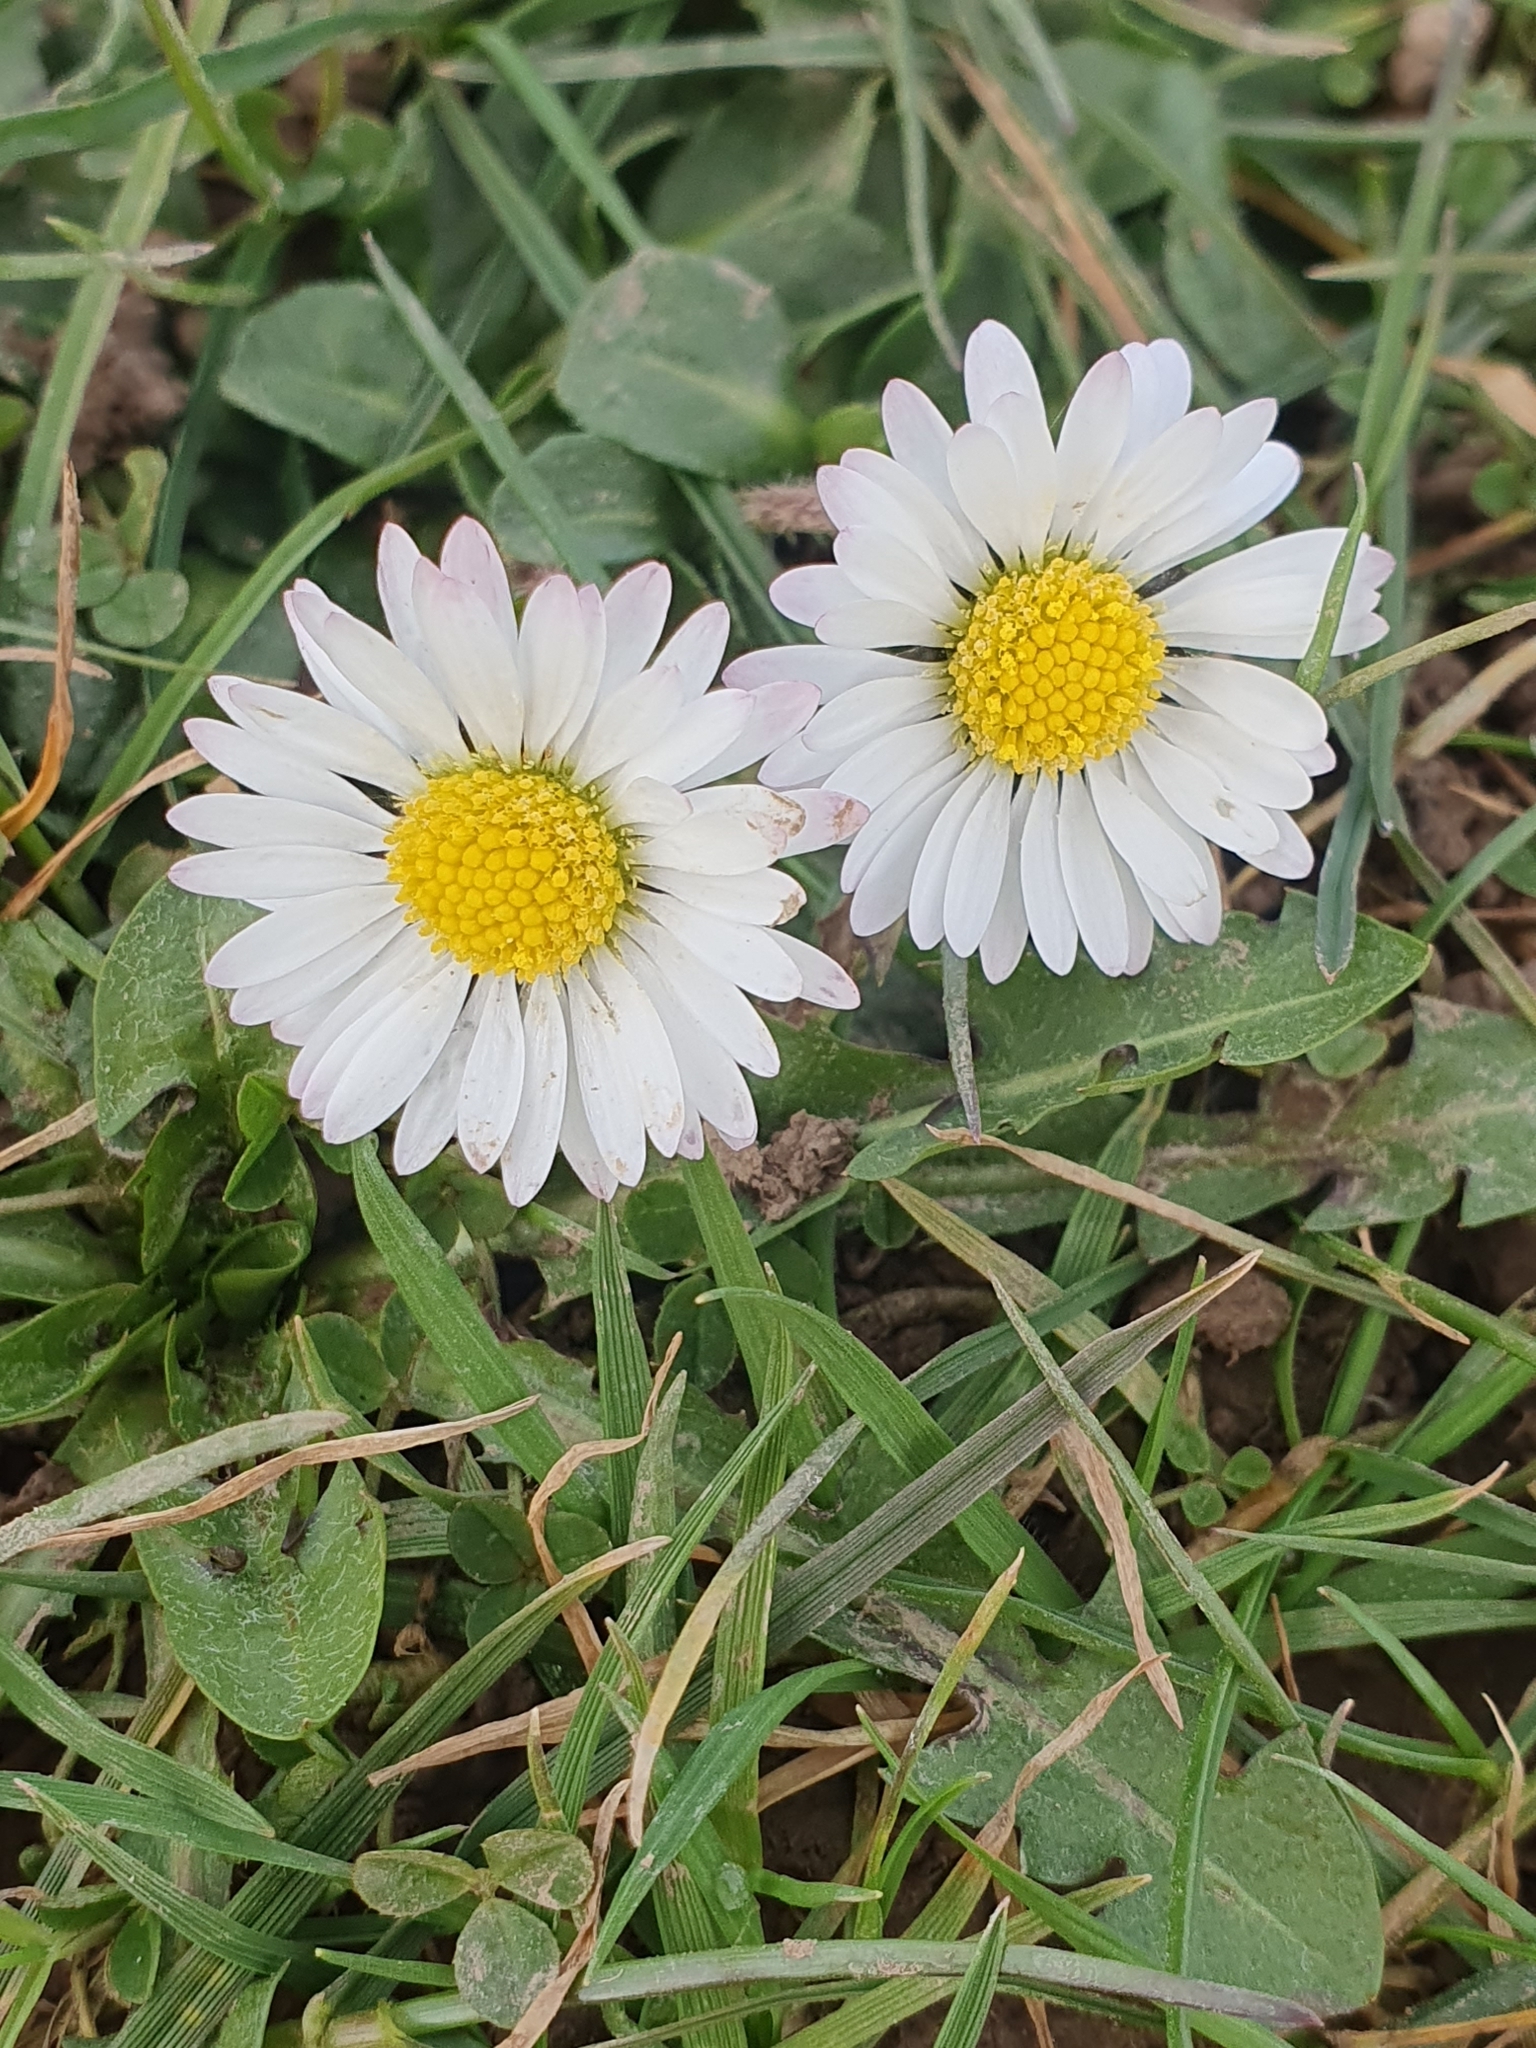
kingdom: Plantae
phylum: Tracheophyta
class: Magnoliopsida
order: Asterales
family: Asteraceae
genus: Bellis
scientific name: Bellis perennis
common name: Lawndaisy
